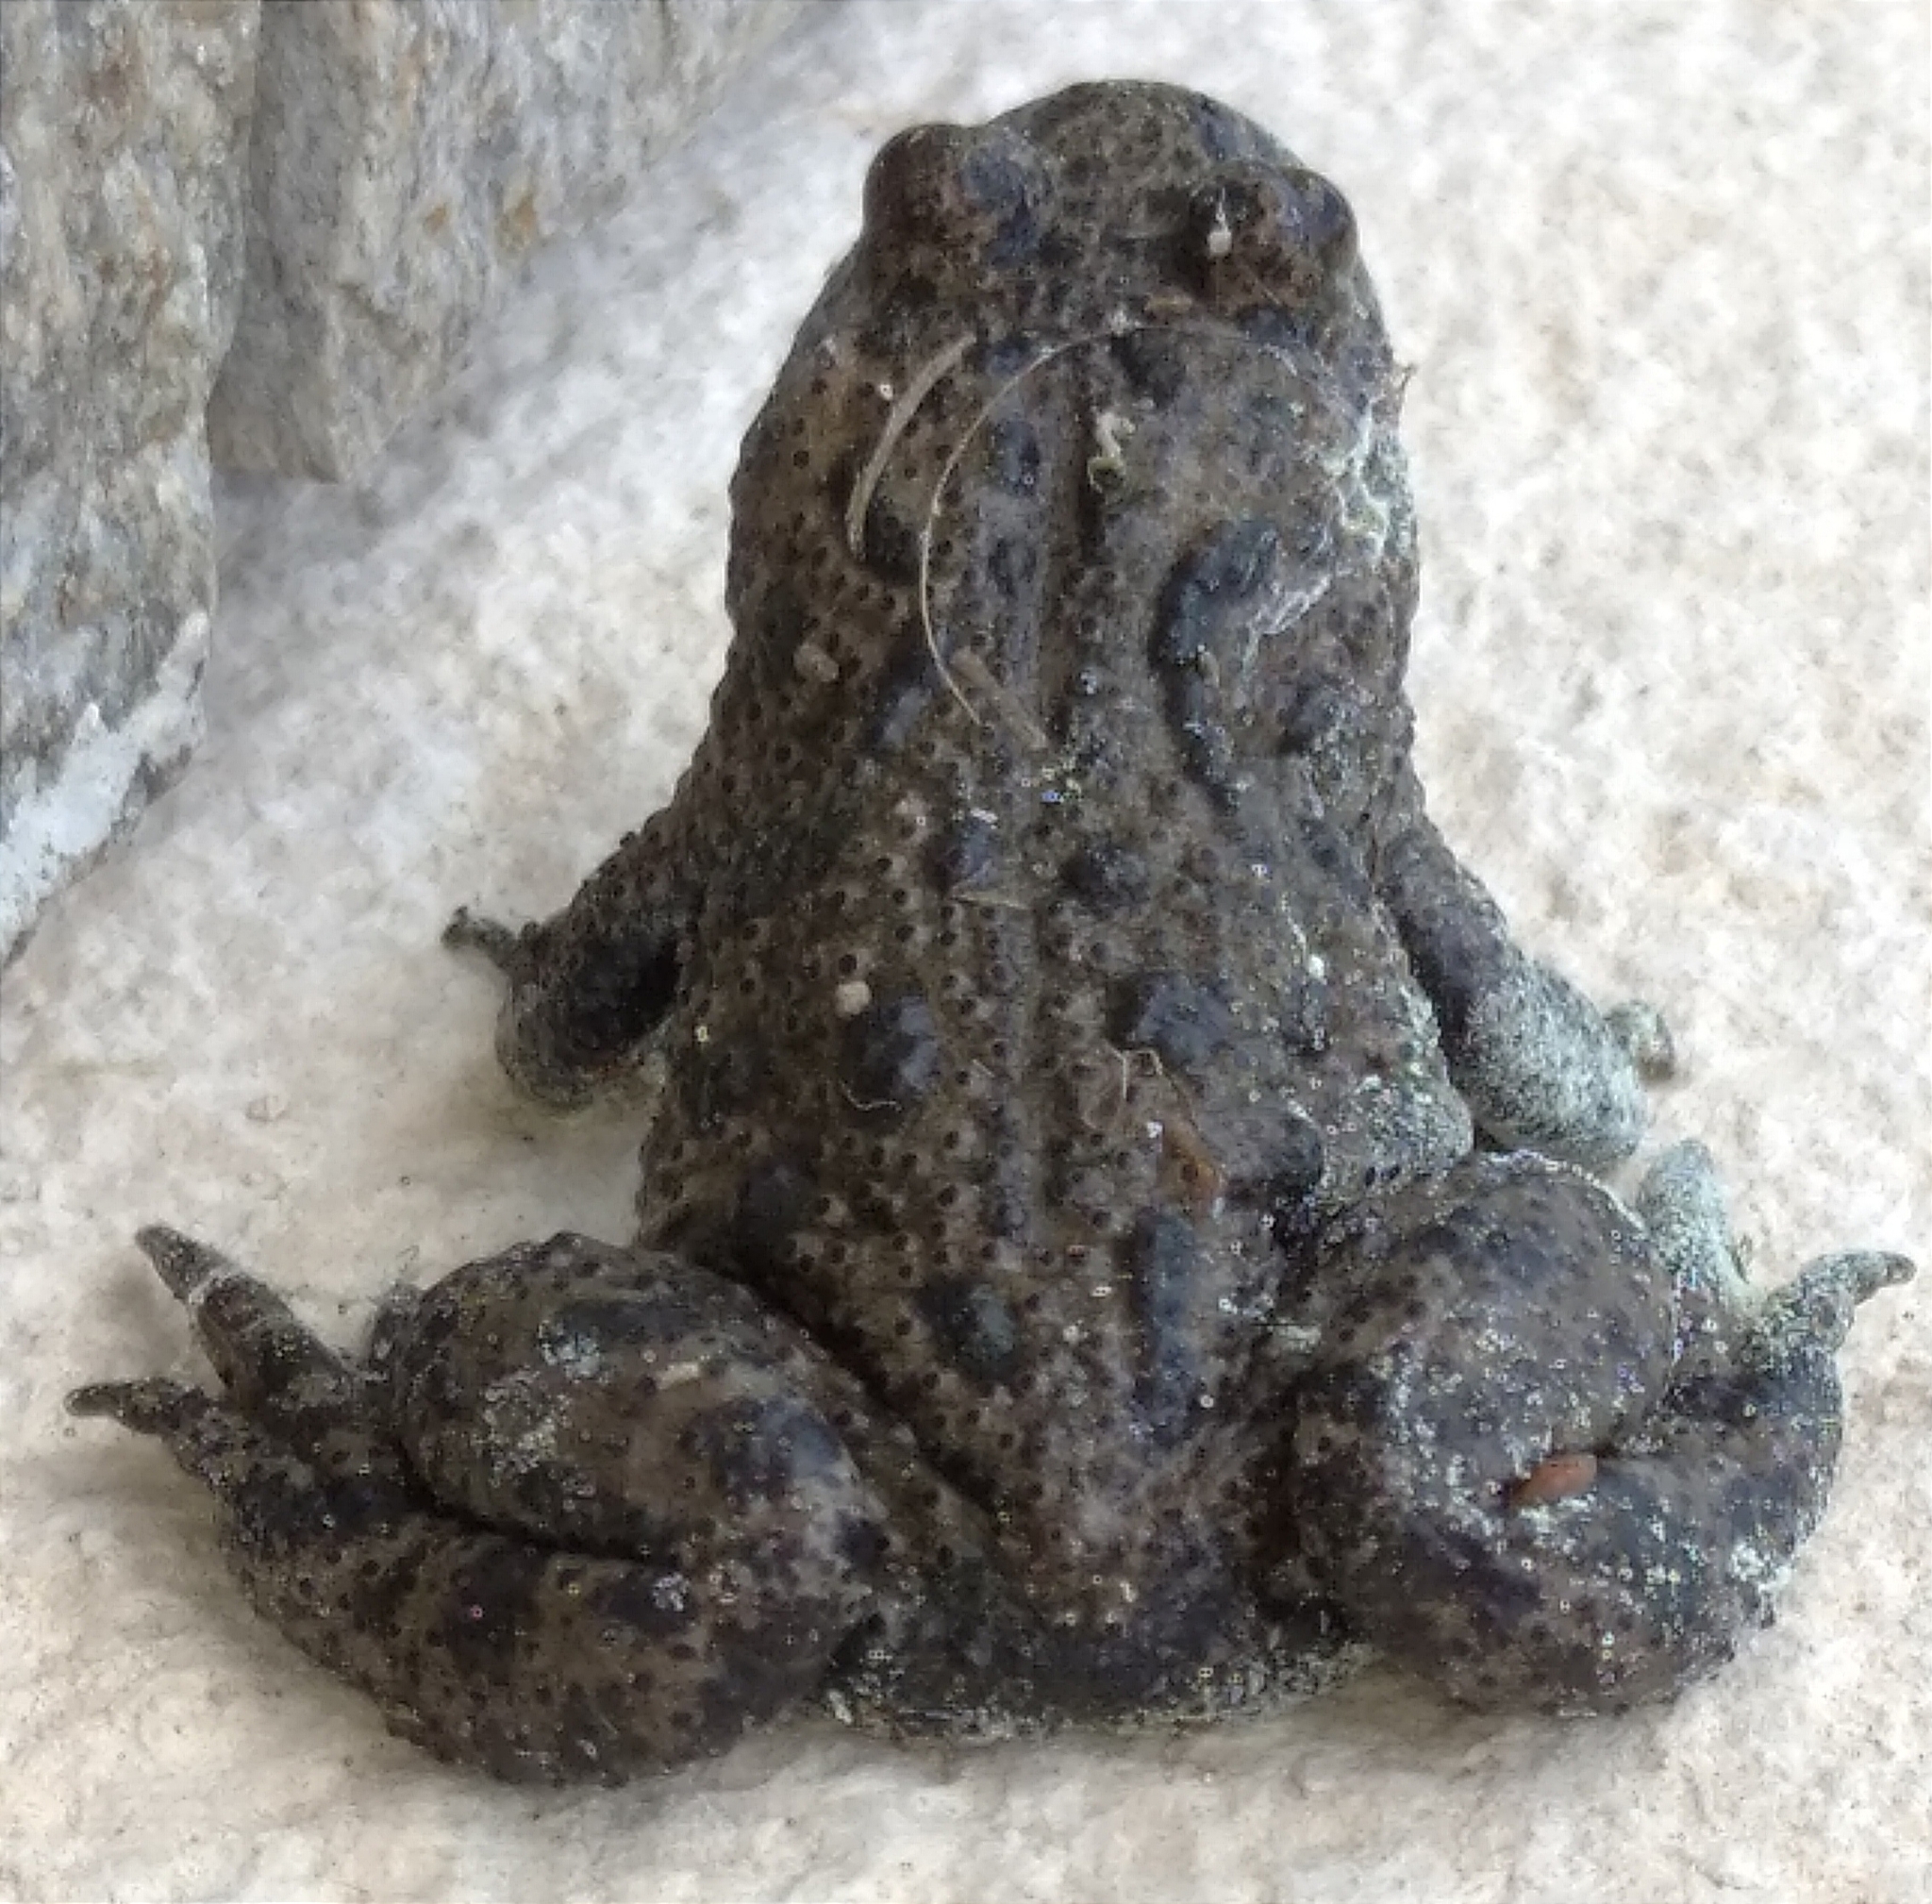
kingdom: Animalia
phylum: Chordata
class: Amphibia
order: Anura
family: Bufonidae
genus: Bufo
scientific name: Bufo bufo
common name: Common toad
